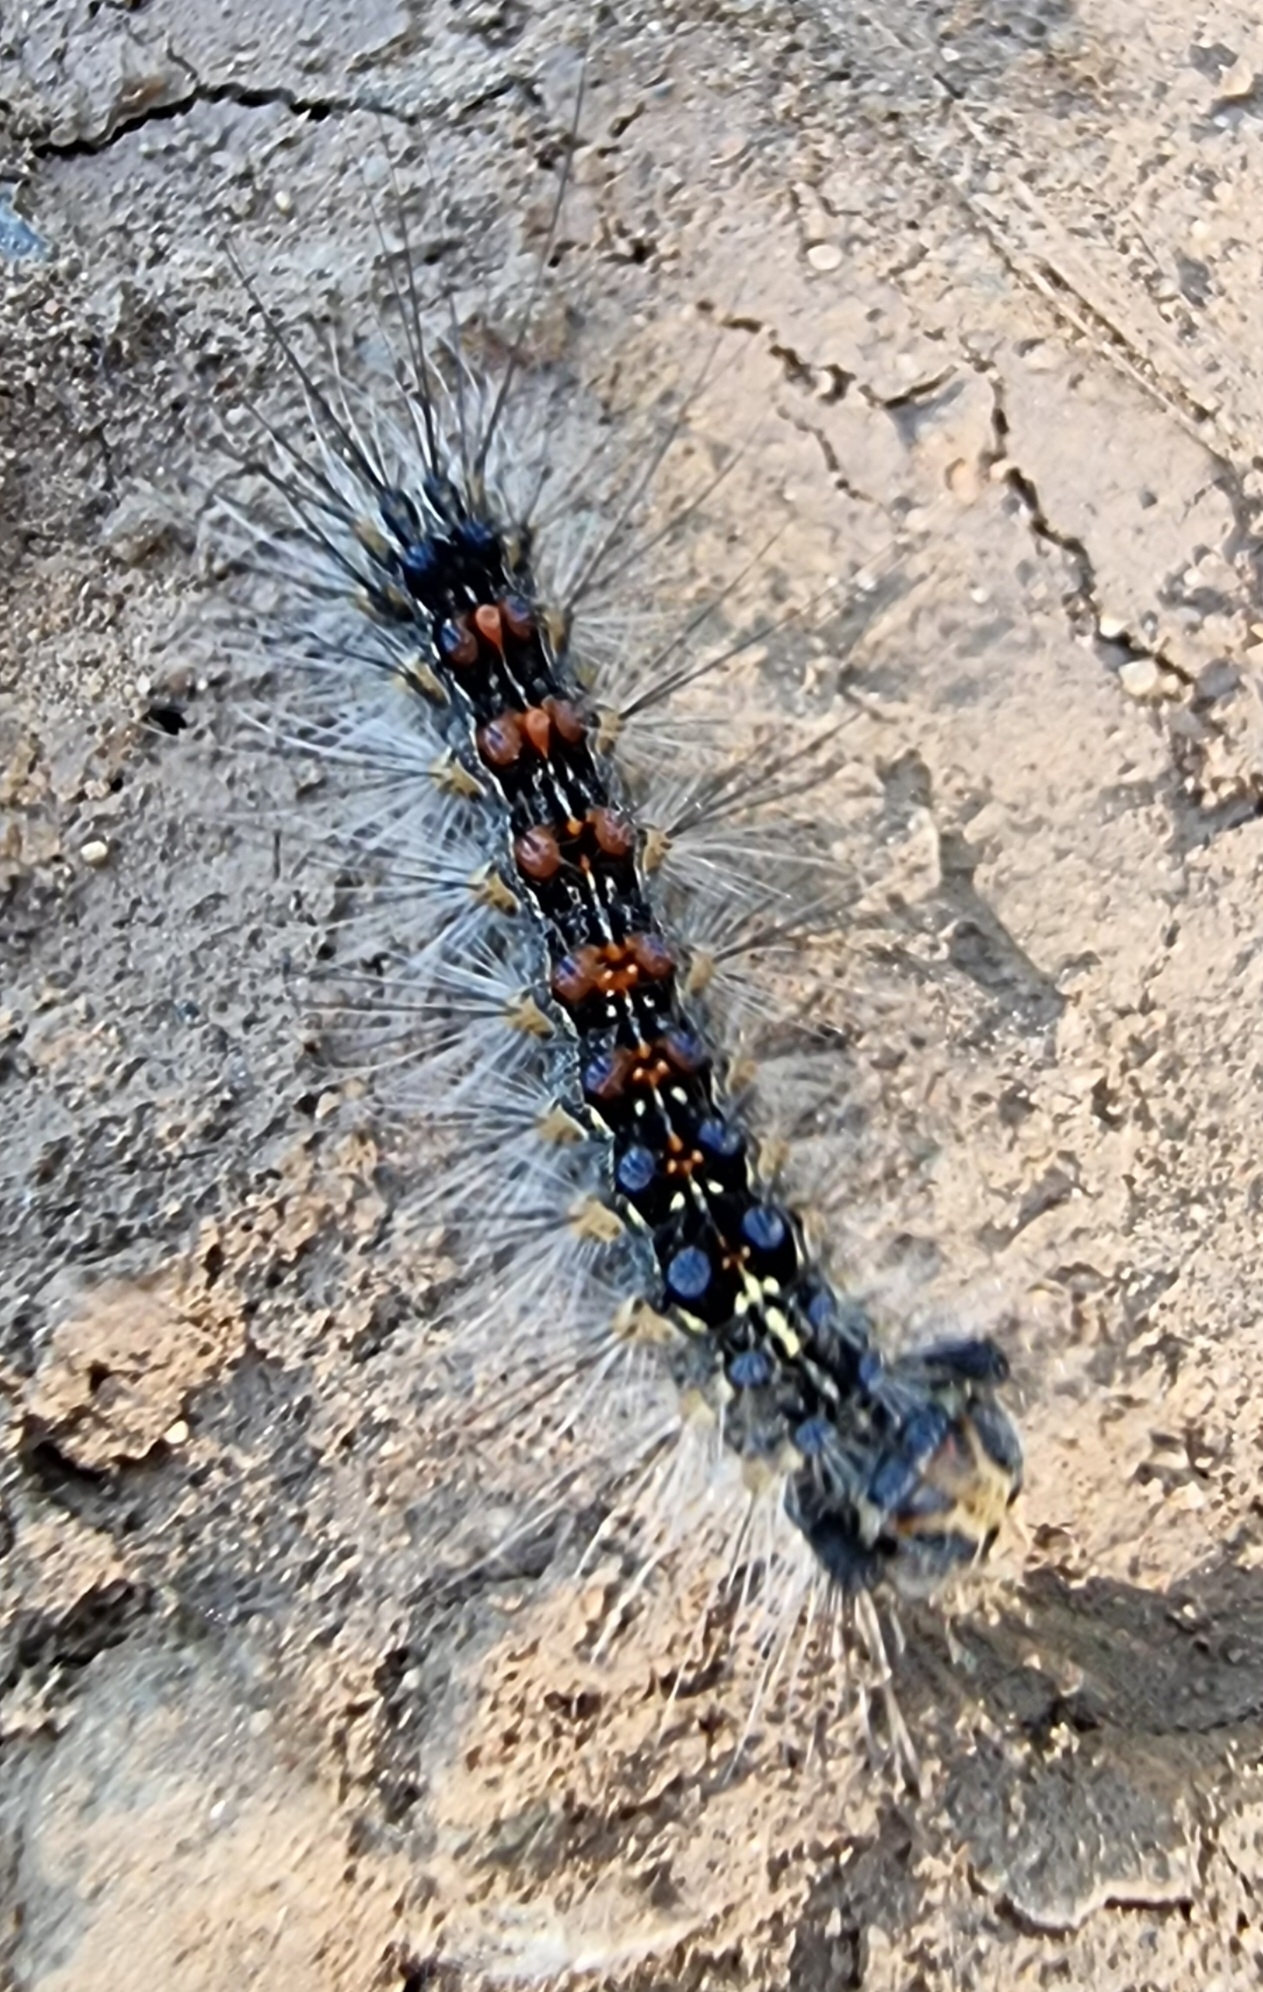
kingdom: Animalia
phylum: Arthropoda
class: Insecta
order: Lepidoptera
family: Erebidae
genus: Lymantria
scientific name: Lymantria dispar
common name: Gypsy moth
